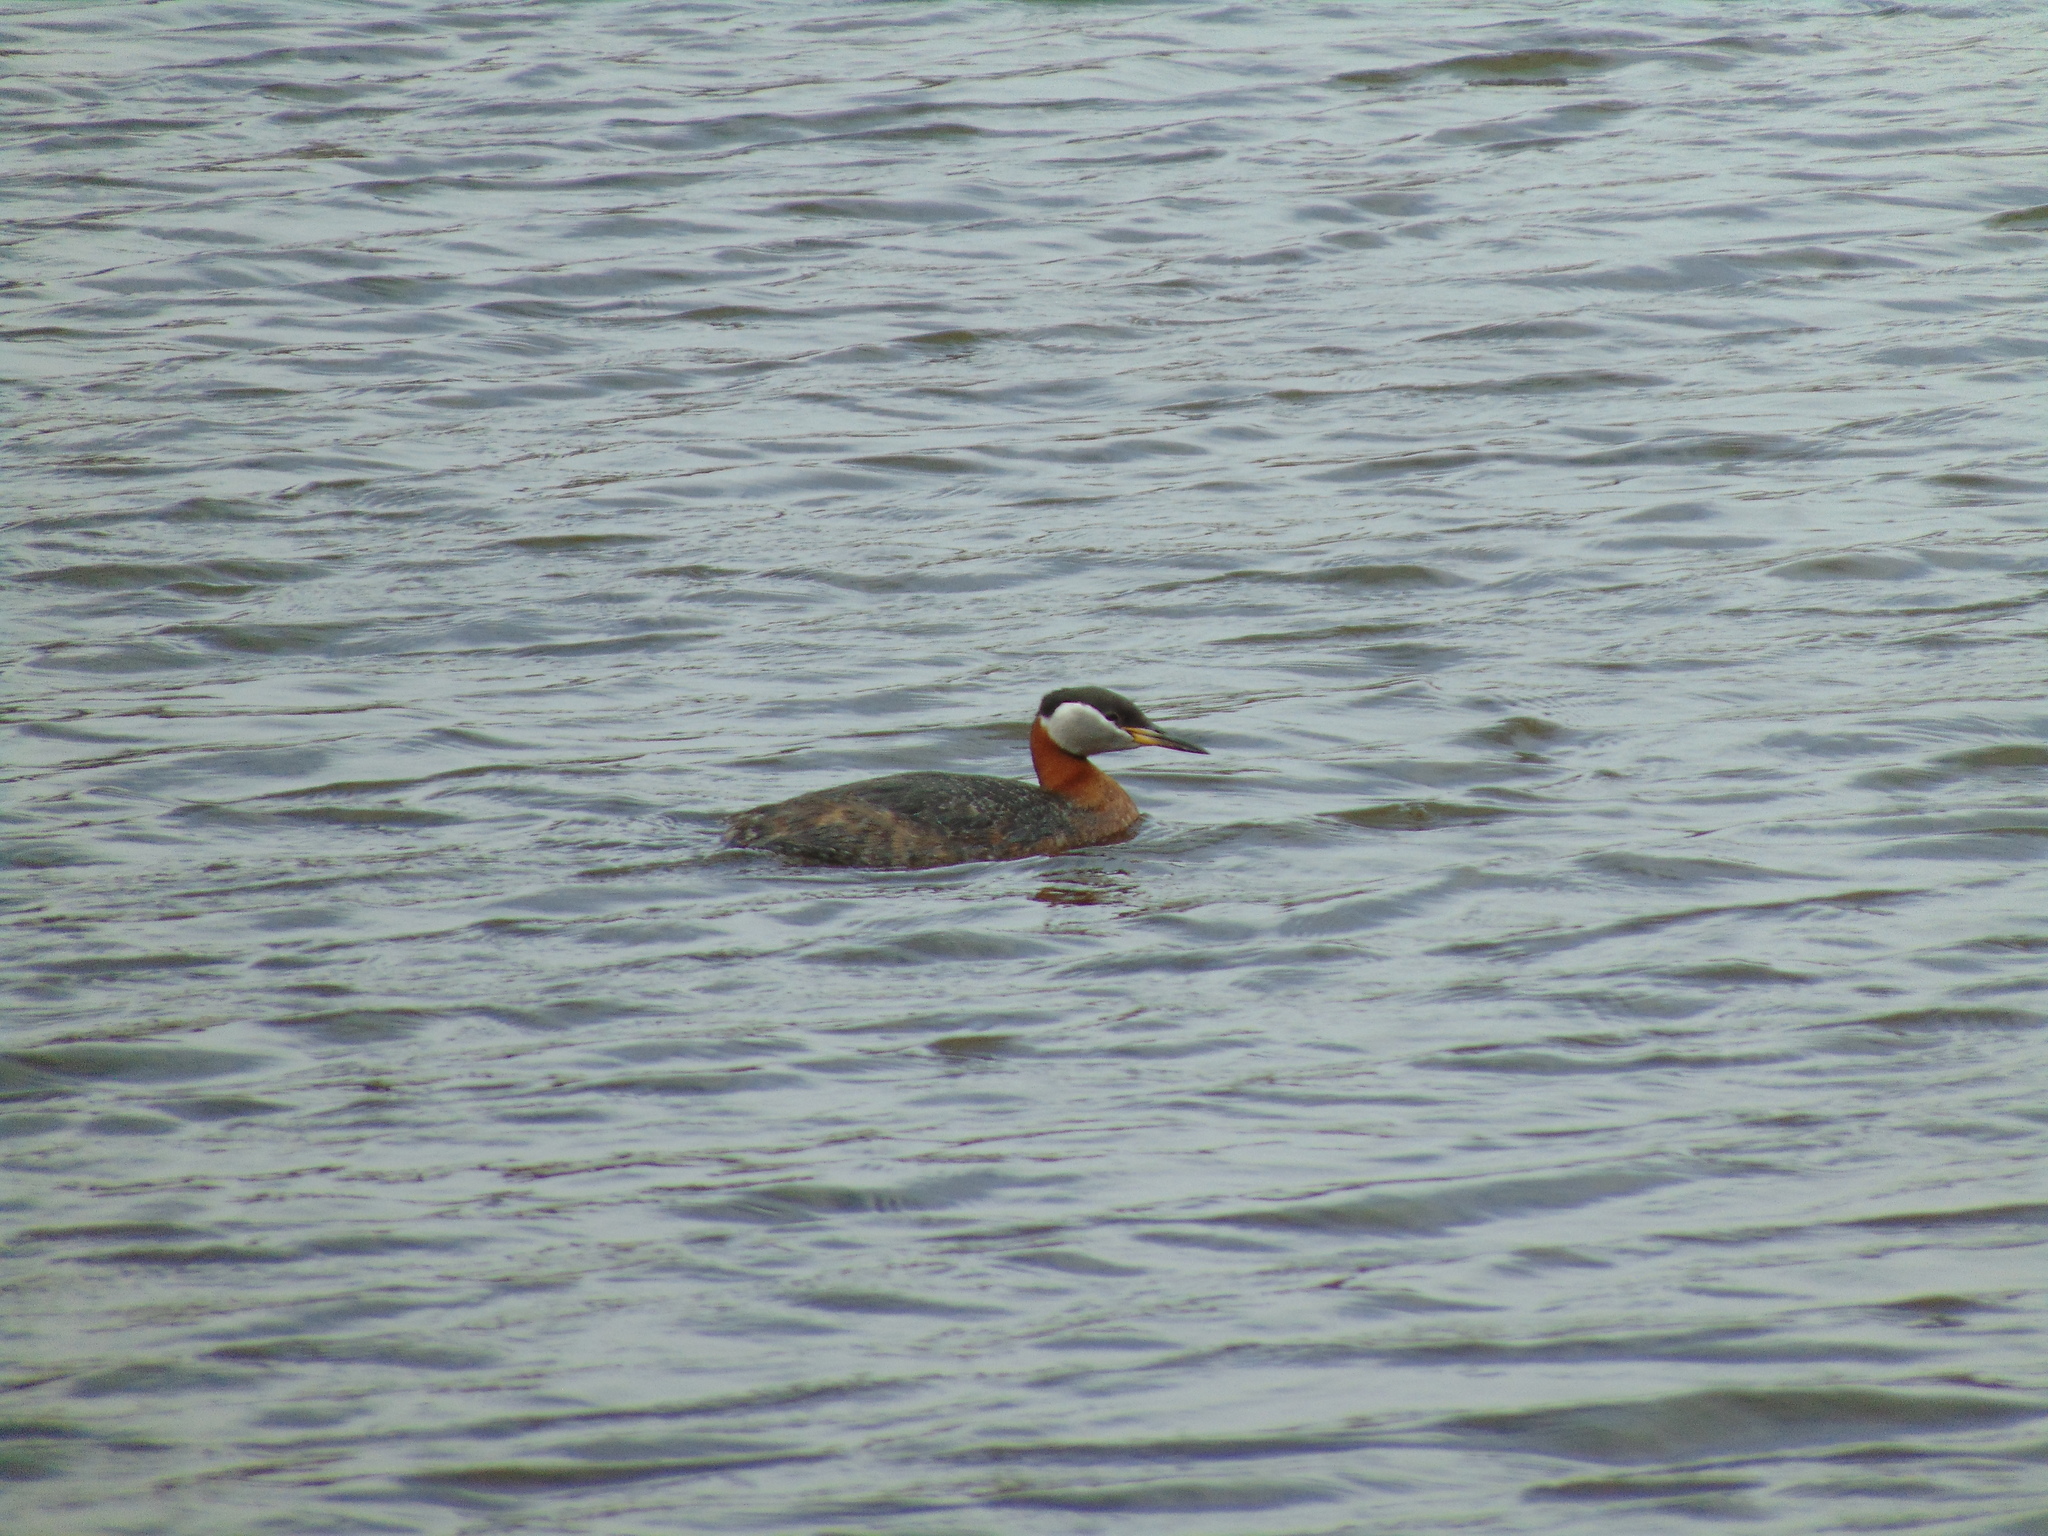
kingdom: Animalia
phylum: Chordata
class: Aves
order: Podicipediformes
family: Podicipedidae
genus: Podiceps
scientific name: Podiceps grisegena
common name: Red-necked grebe
